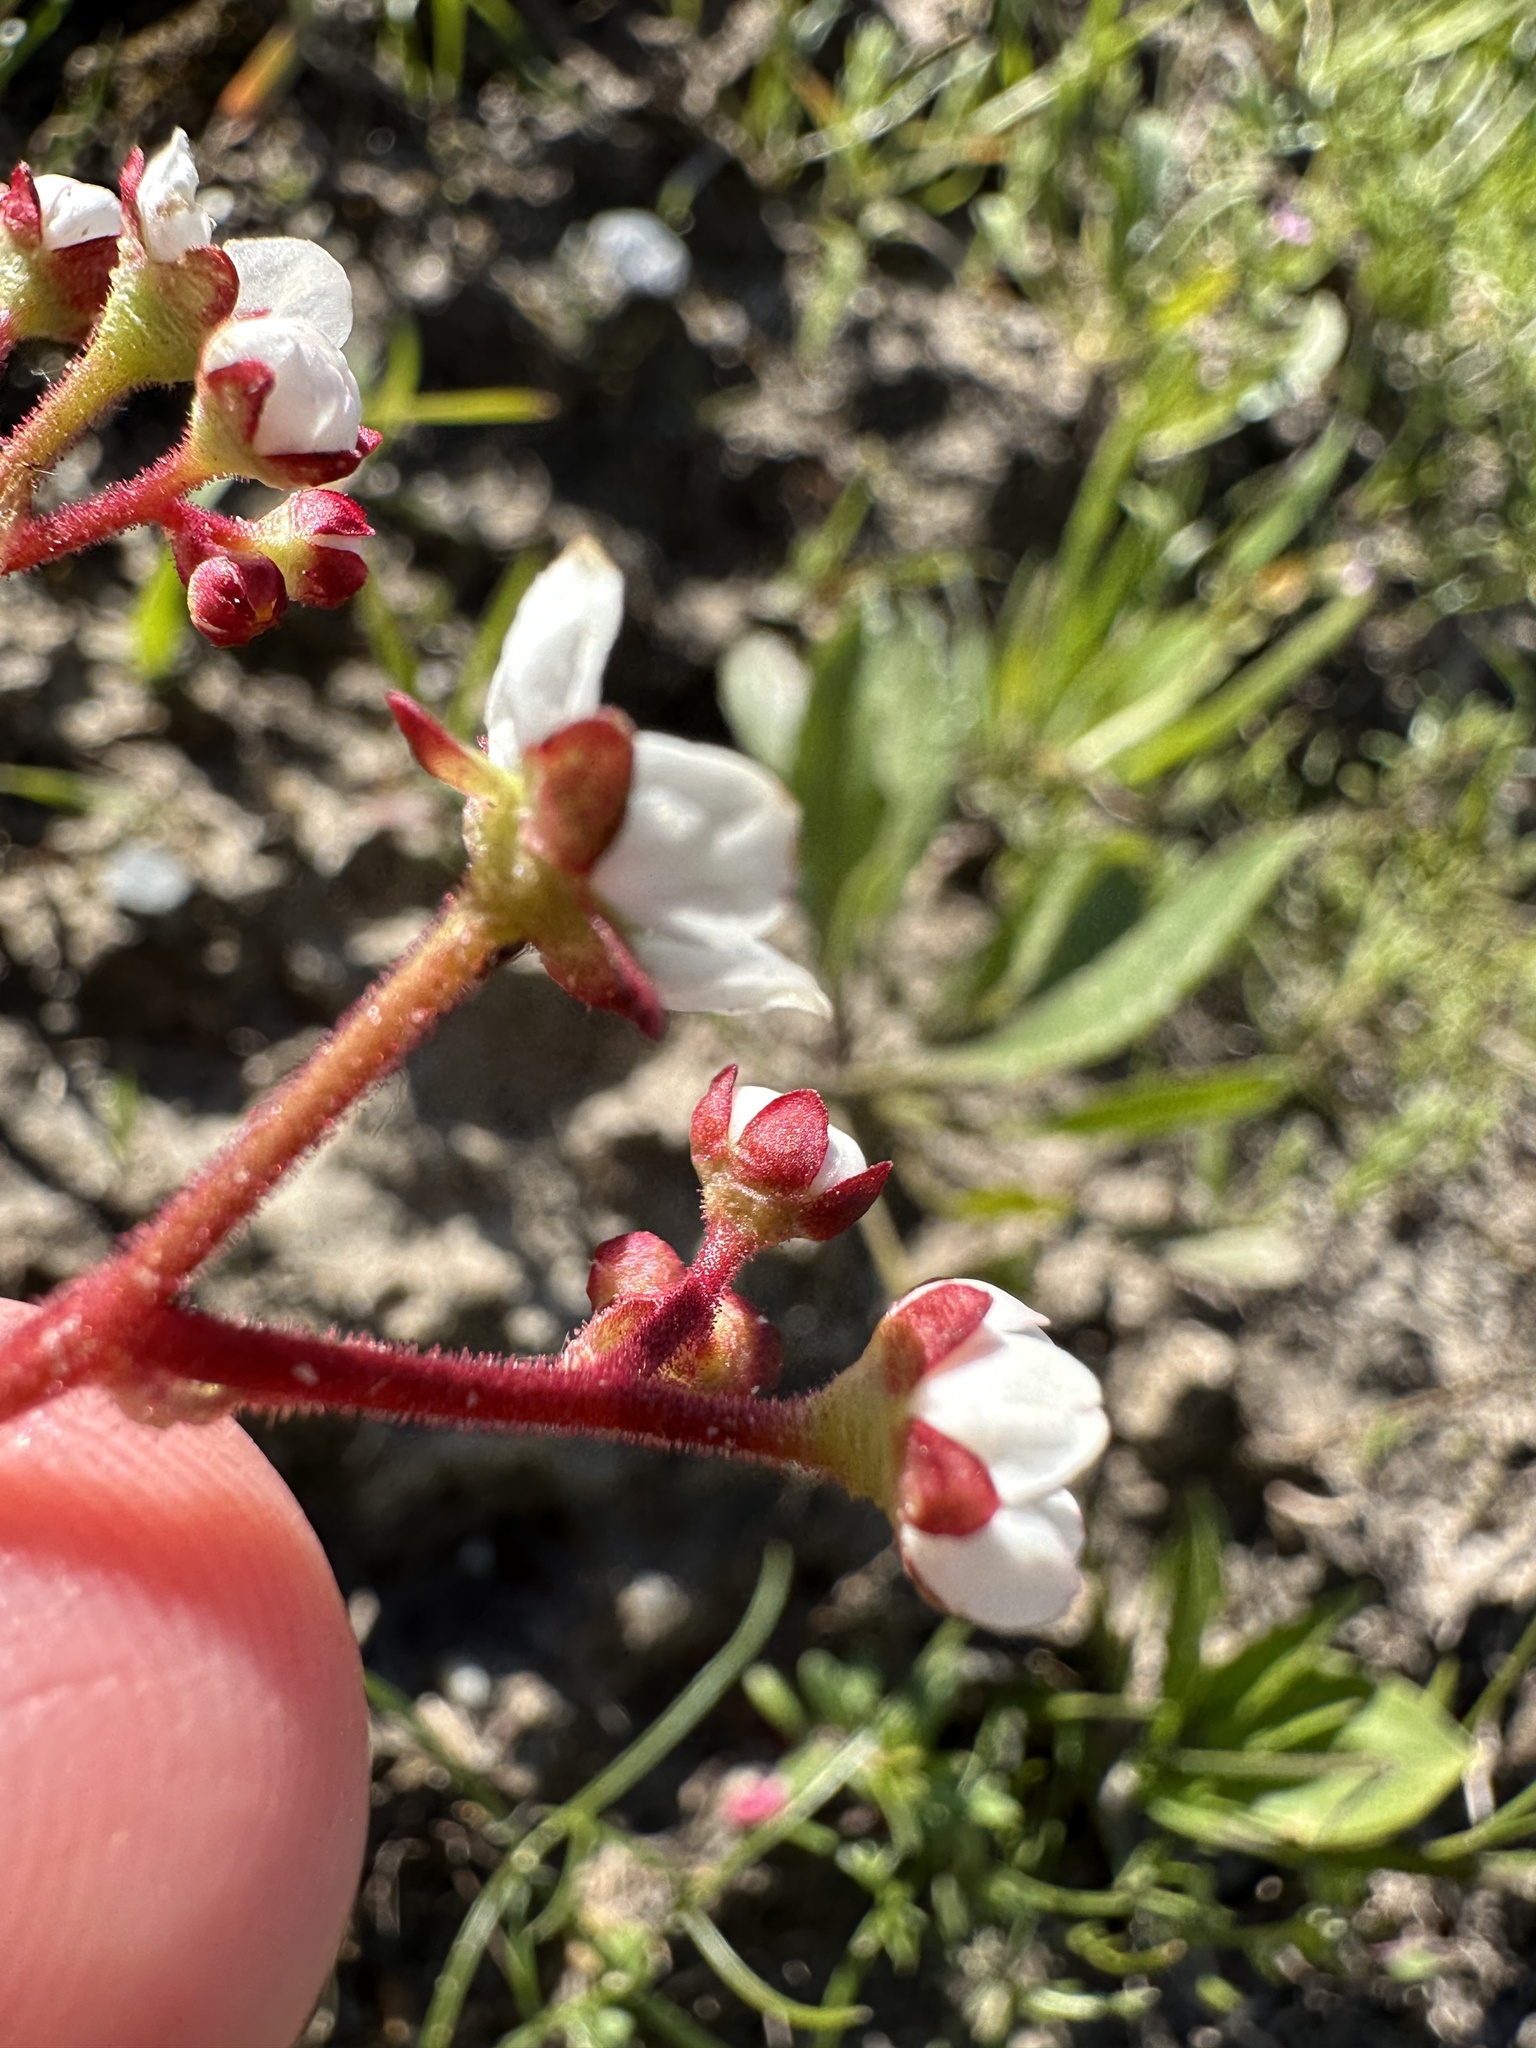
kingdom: Plantae
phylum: Tracheophyta
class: Magnoliopsida
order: Saxifragales
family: Saxifragaceae
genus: Micranthes
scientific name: Micranthes californica
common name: California saxifrage
